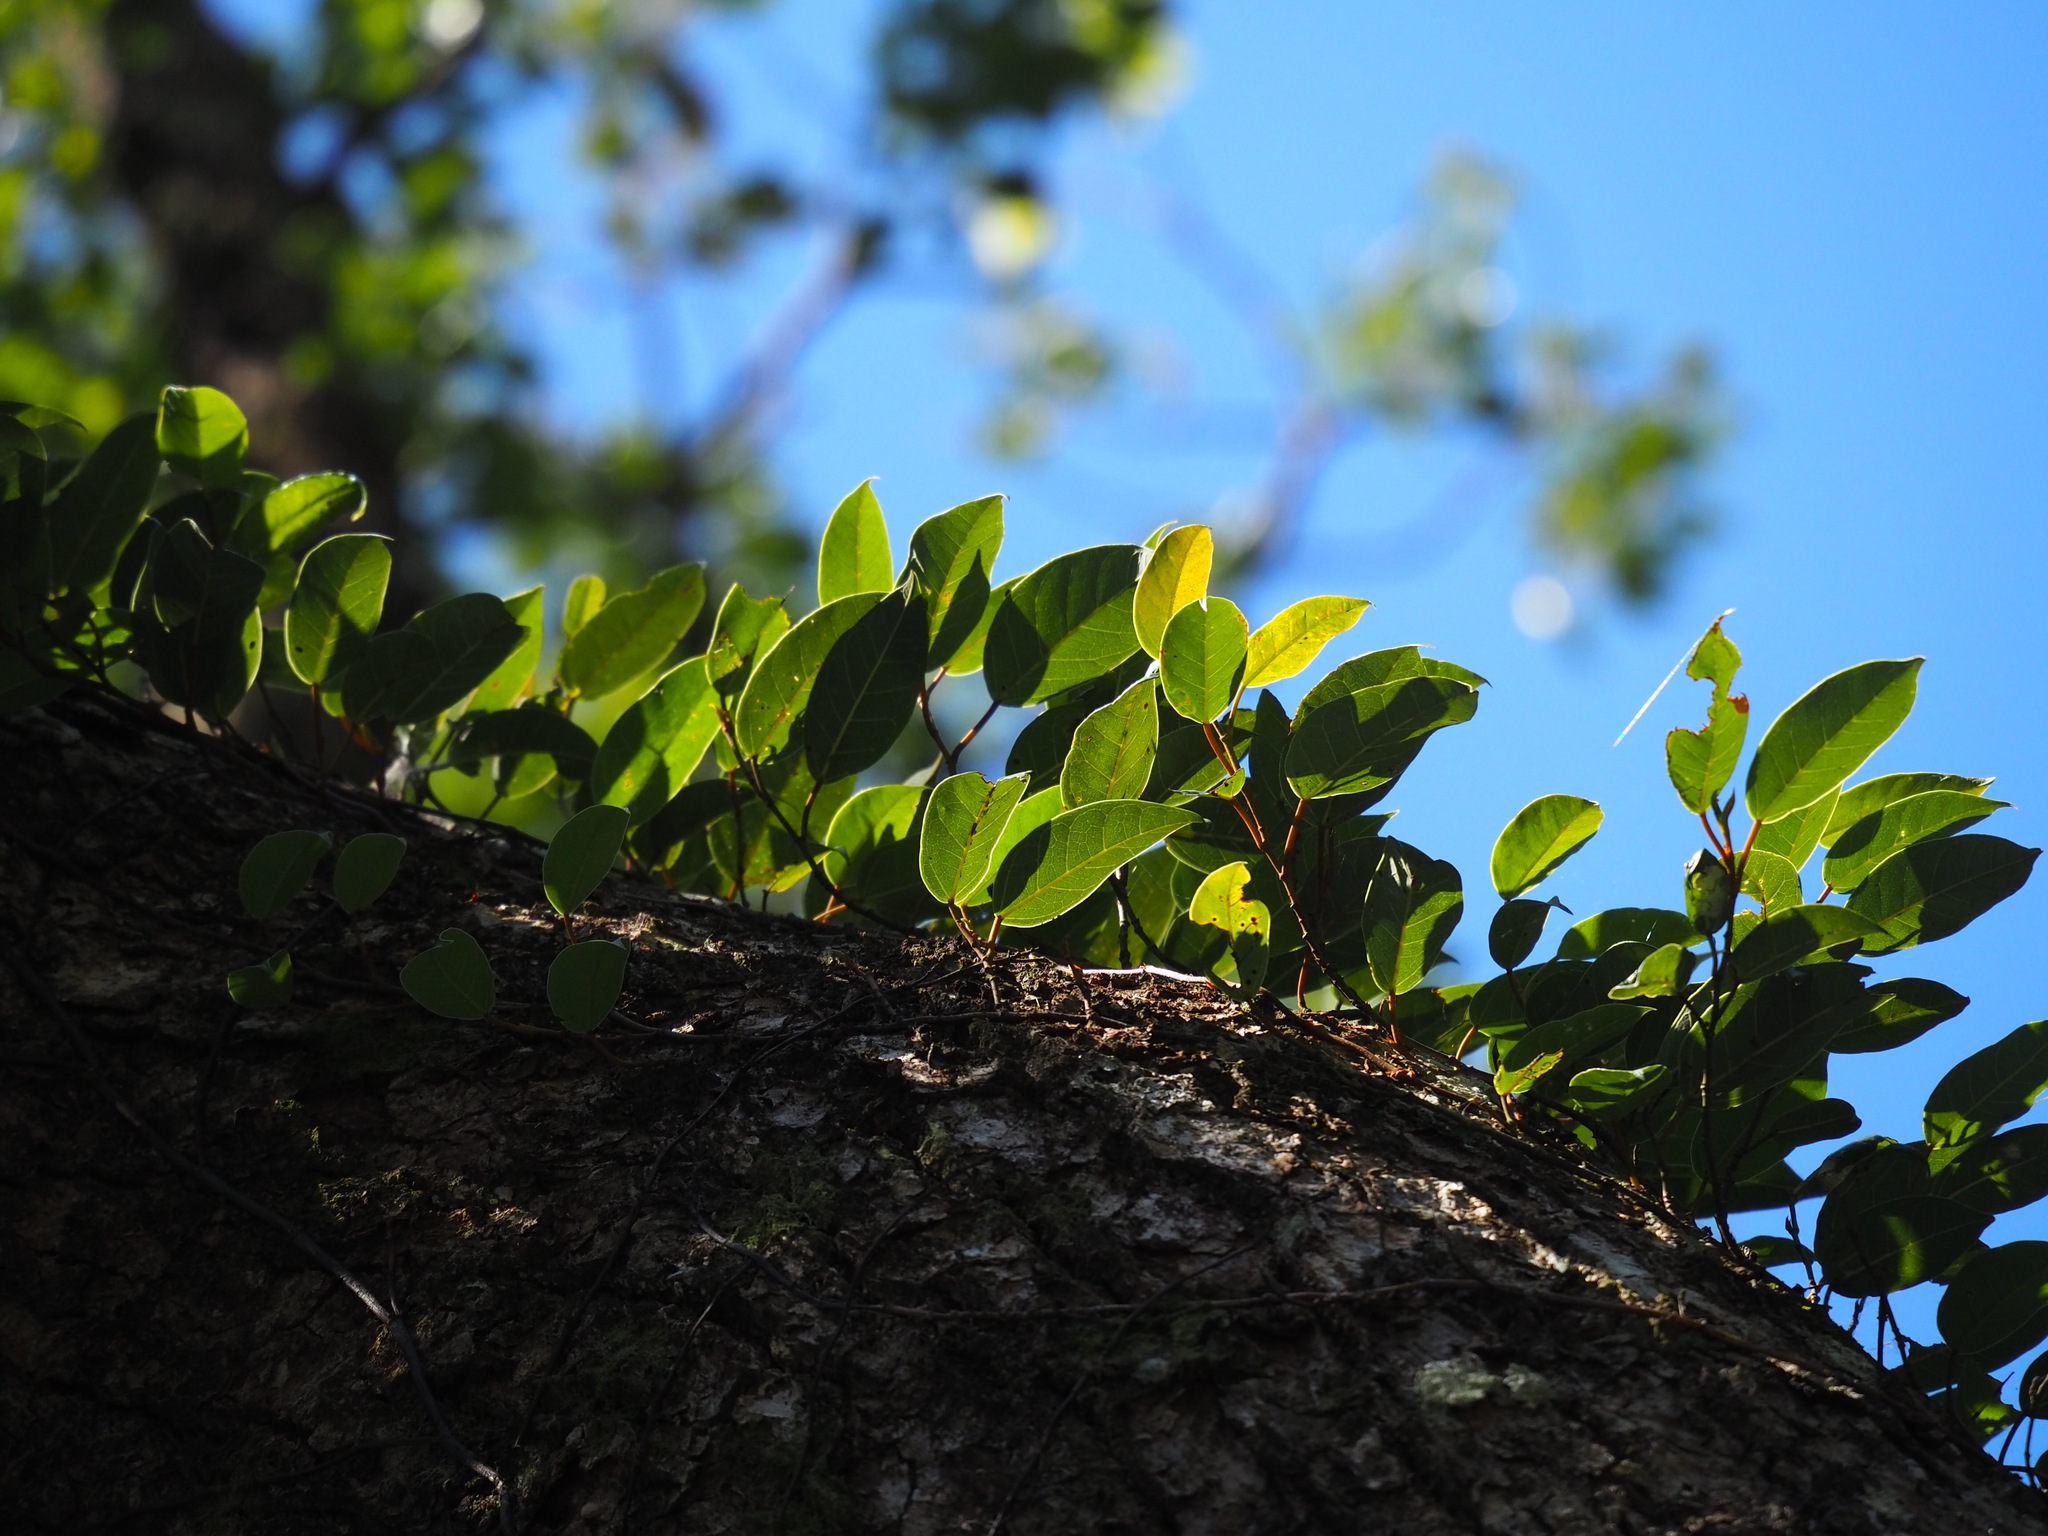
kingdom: Plantae
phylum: Tracheophyta
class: Magnoliopsida
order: Cornales
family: Hydrangeaceae
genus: Hydrangea
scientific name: Hydrangea viburnoides
